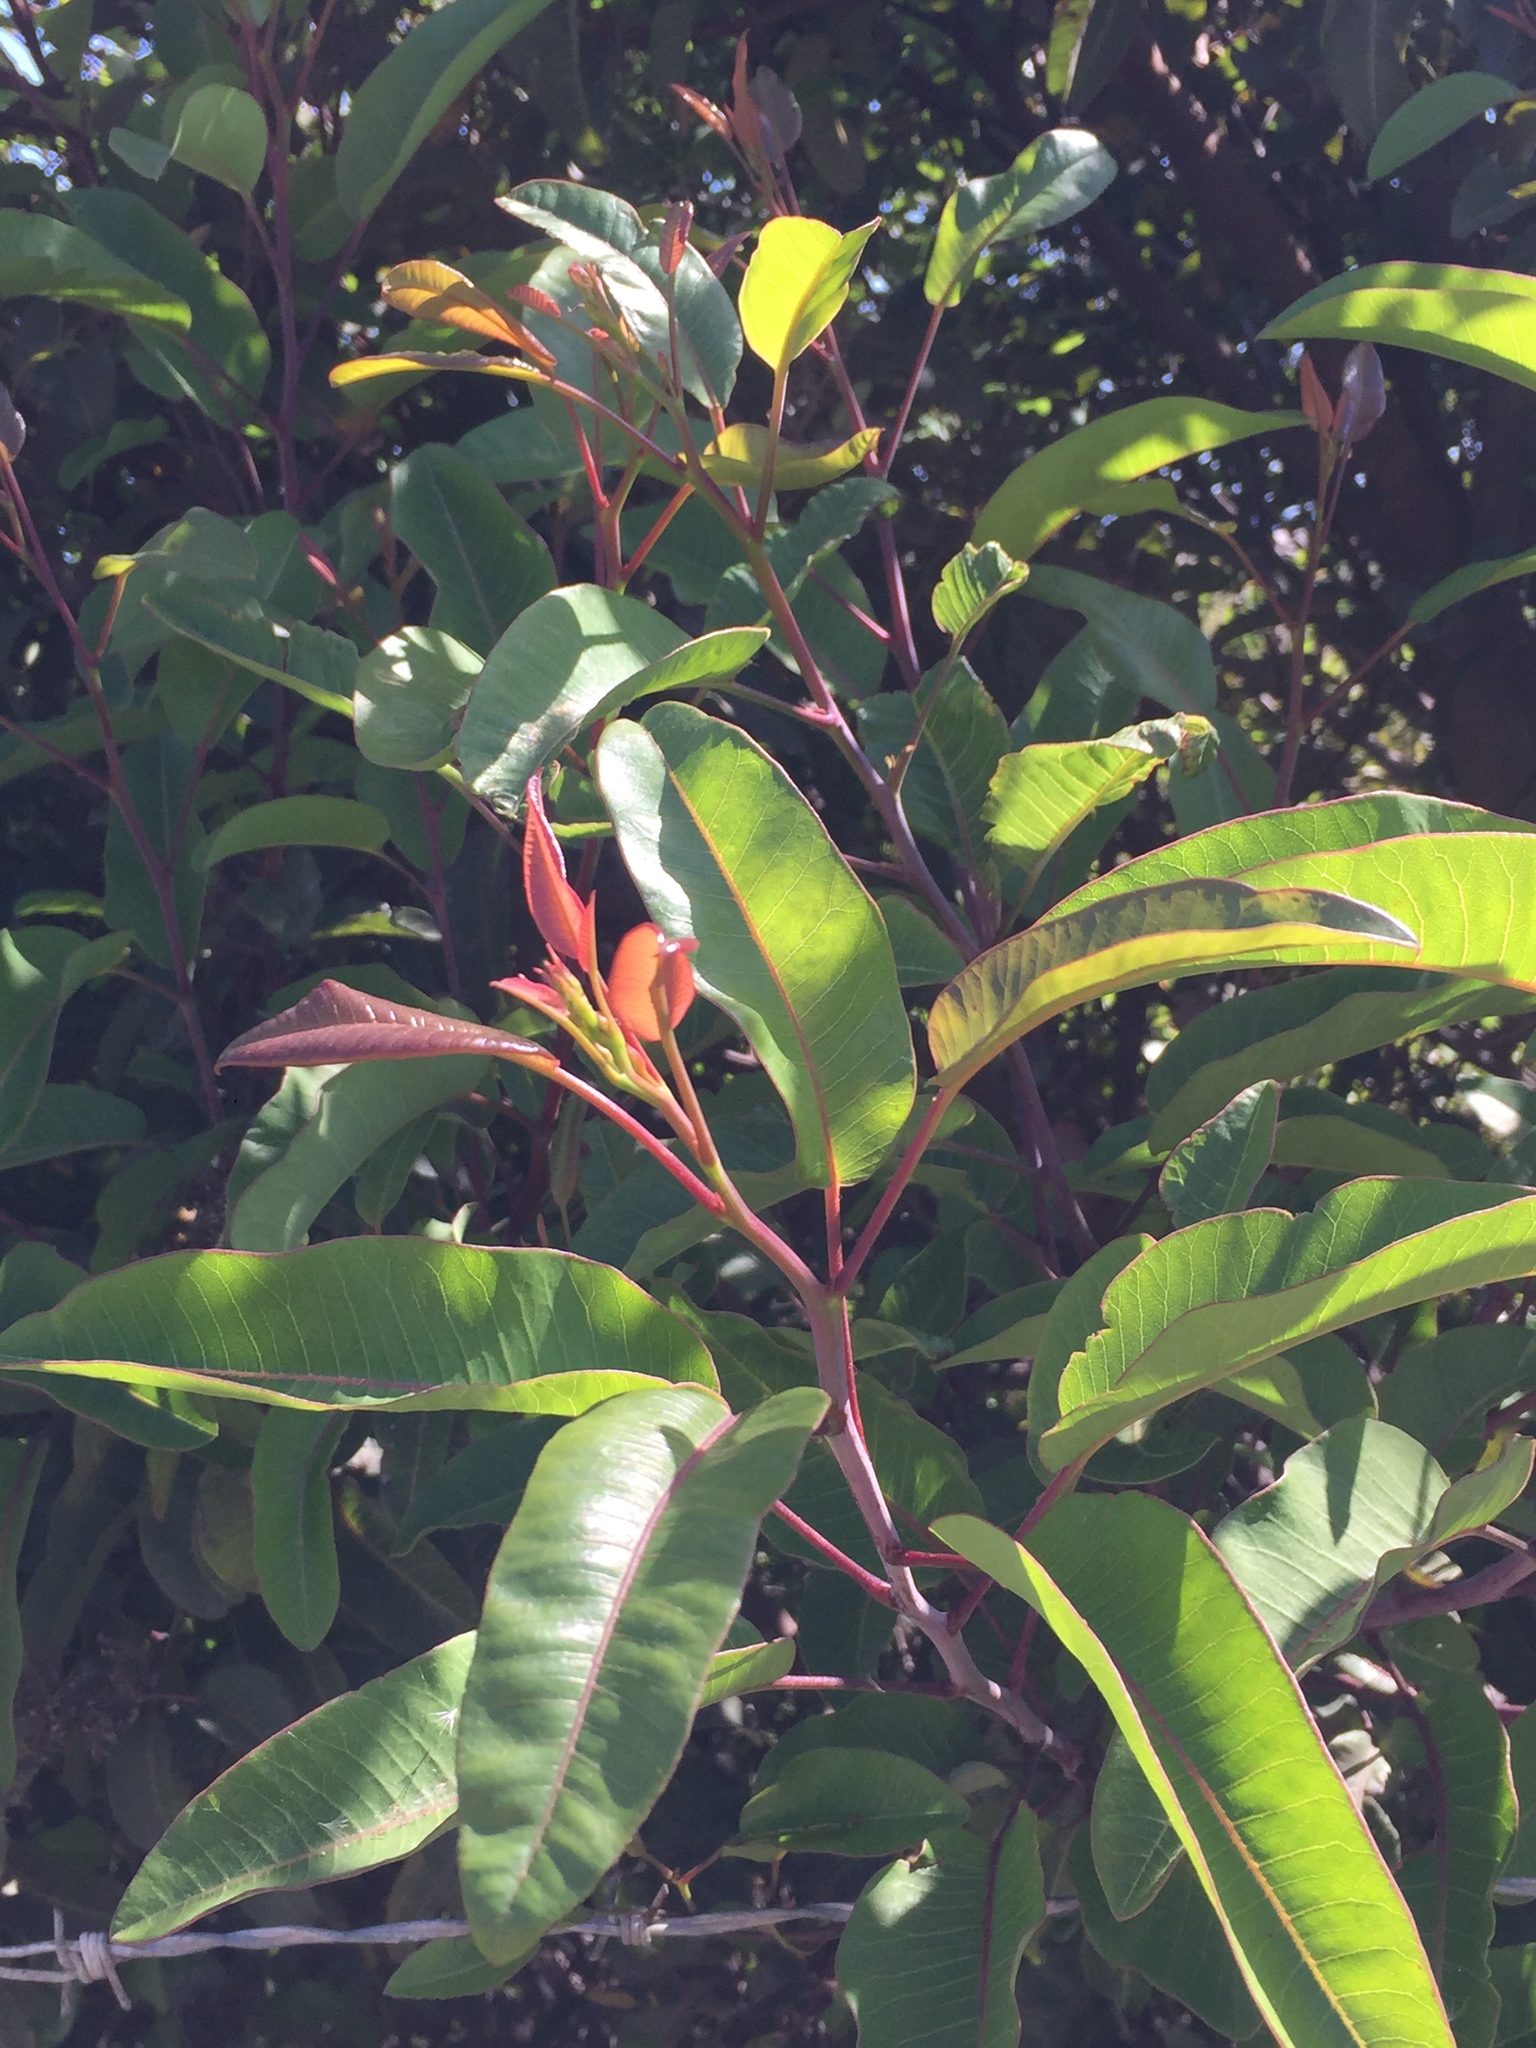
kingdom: Plantae
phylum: Tracheophyta
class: Magnoliopsida
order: Sapindales
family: Anacardiaceae
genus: Malosma
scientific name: Malosma laurina
